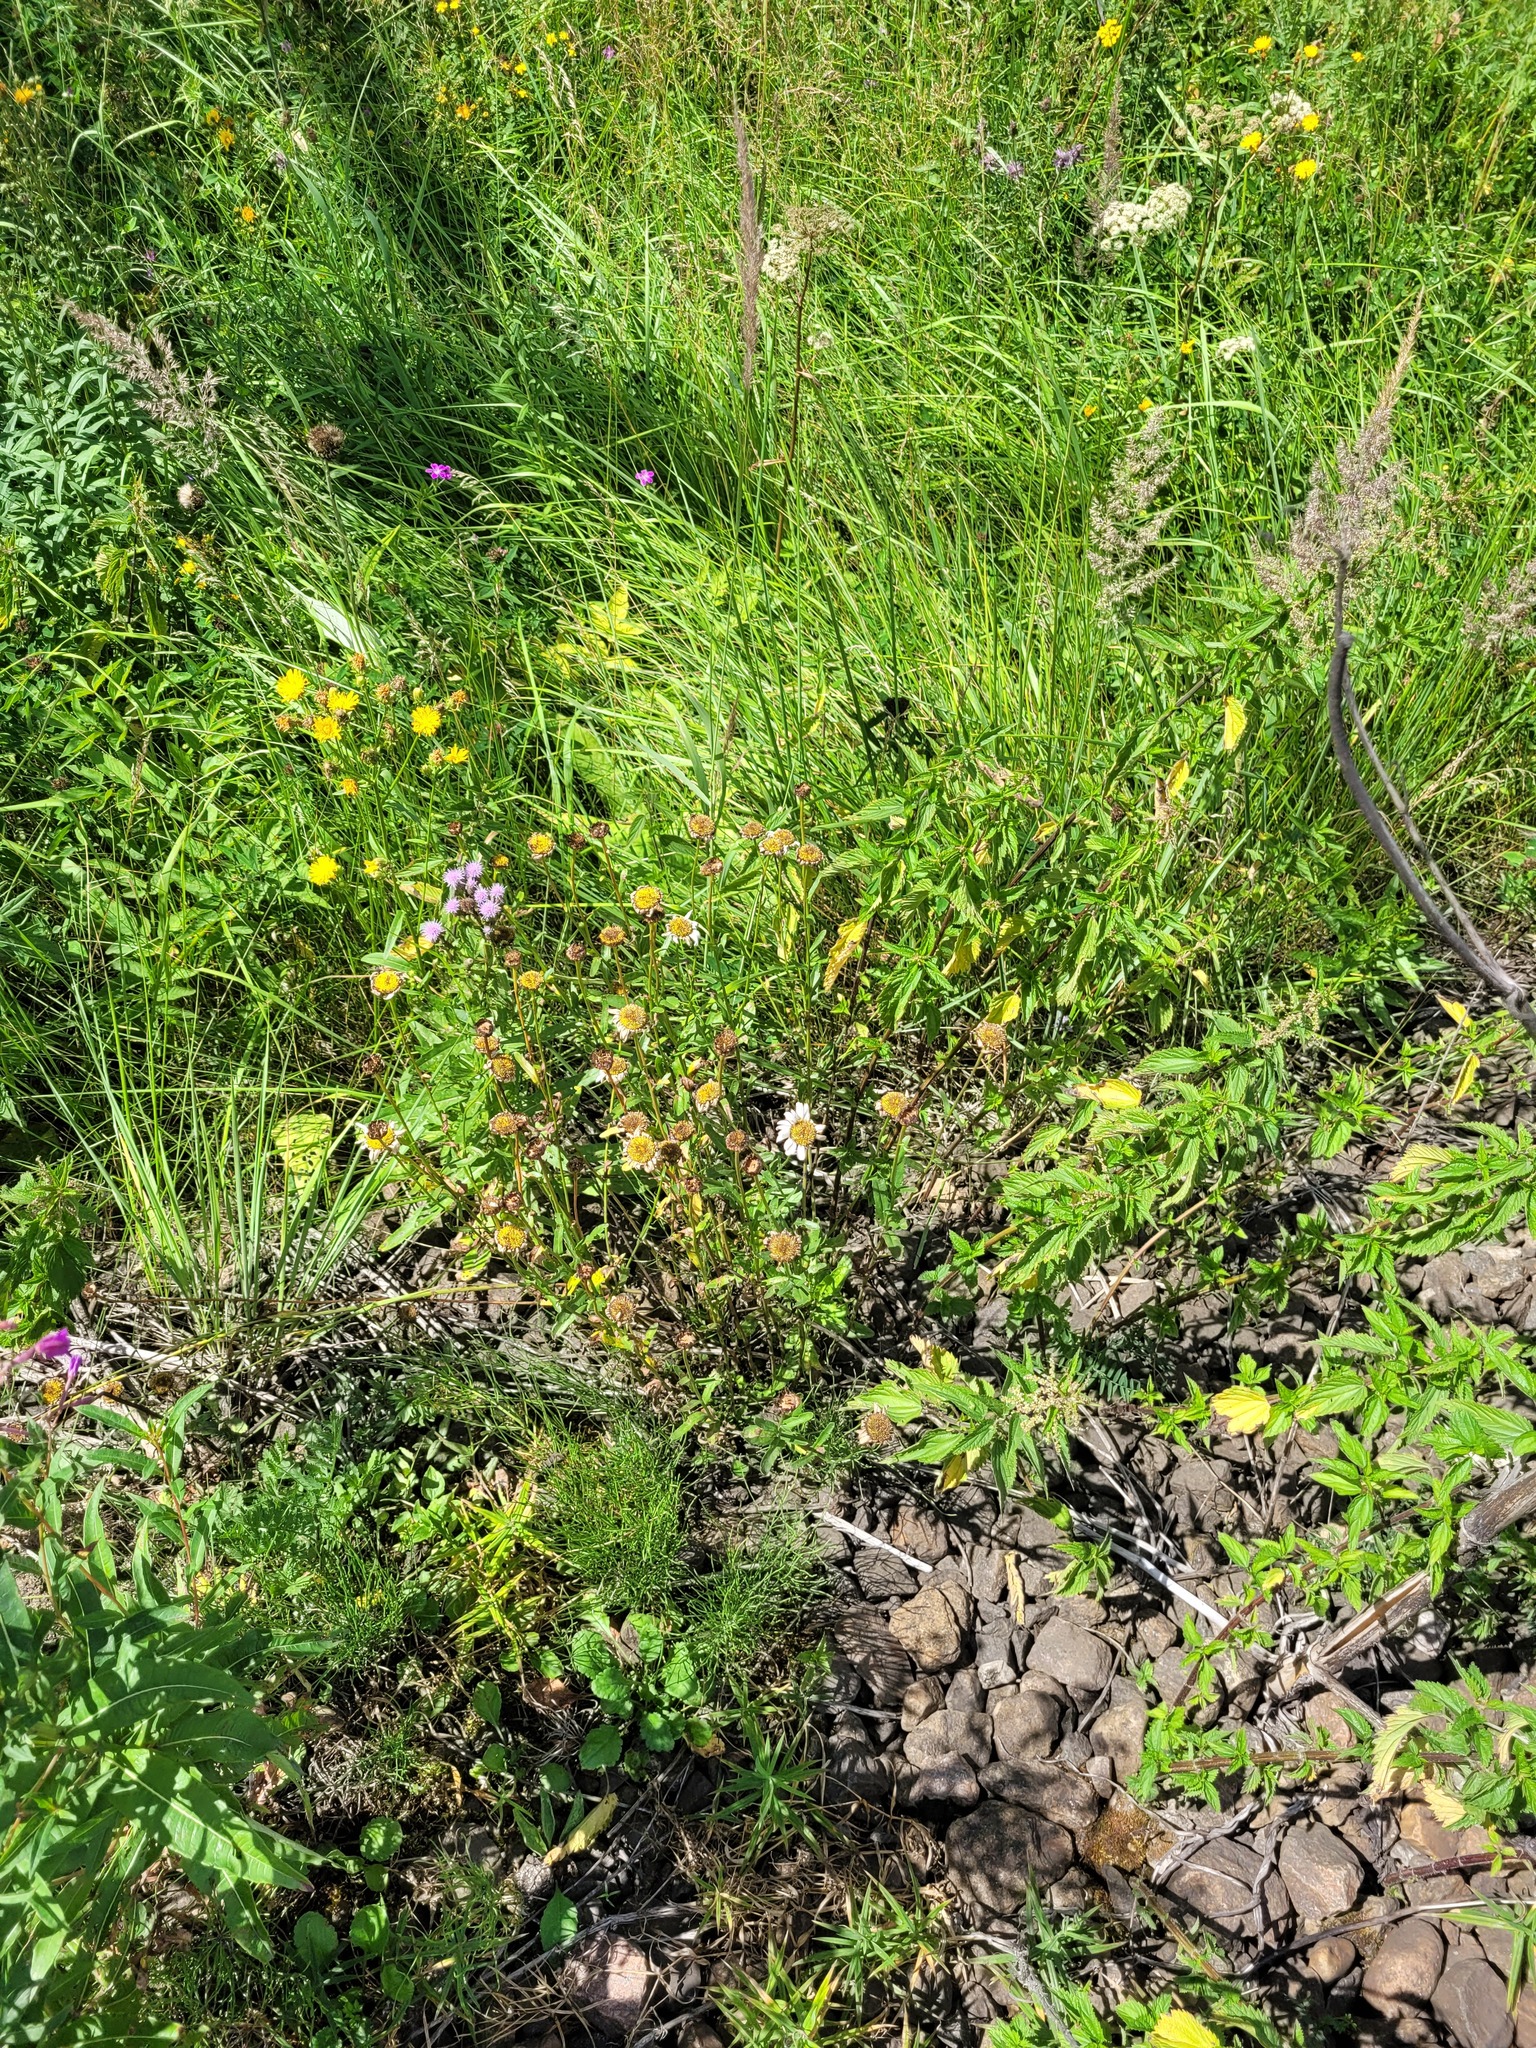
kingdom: Plantae
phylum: Tracheophyta
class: Magnoliopsida
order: Asterales
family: Asteraceae
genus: Leucanthemum
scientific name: Leucanthemum vulgare
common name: Oxeye daisy
